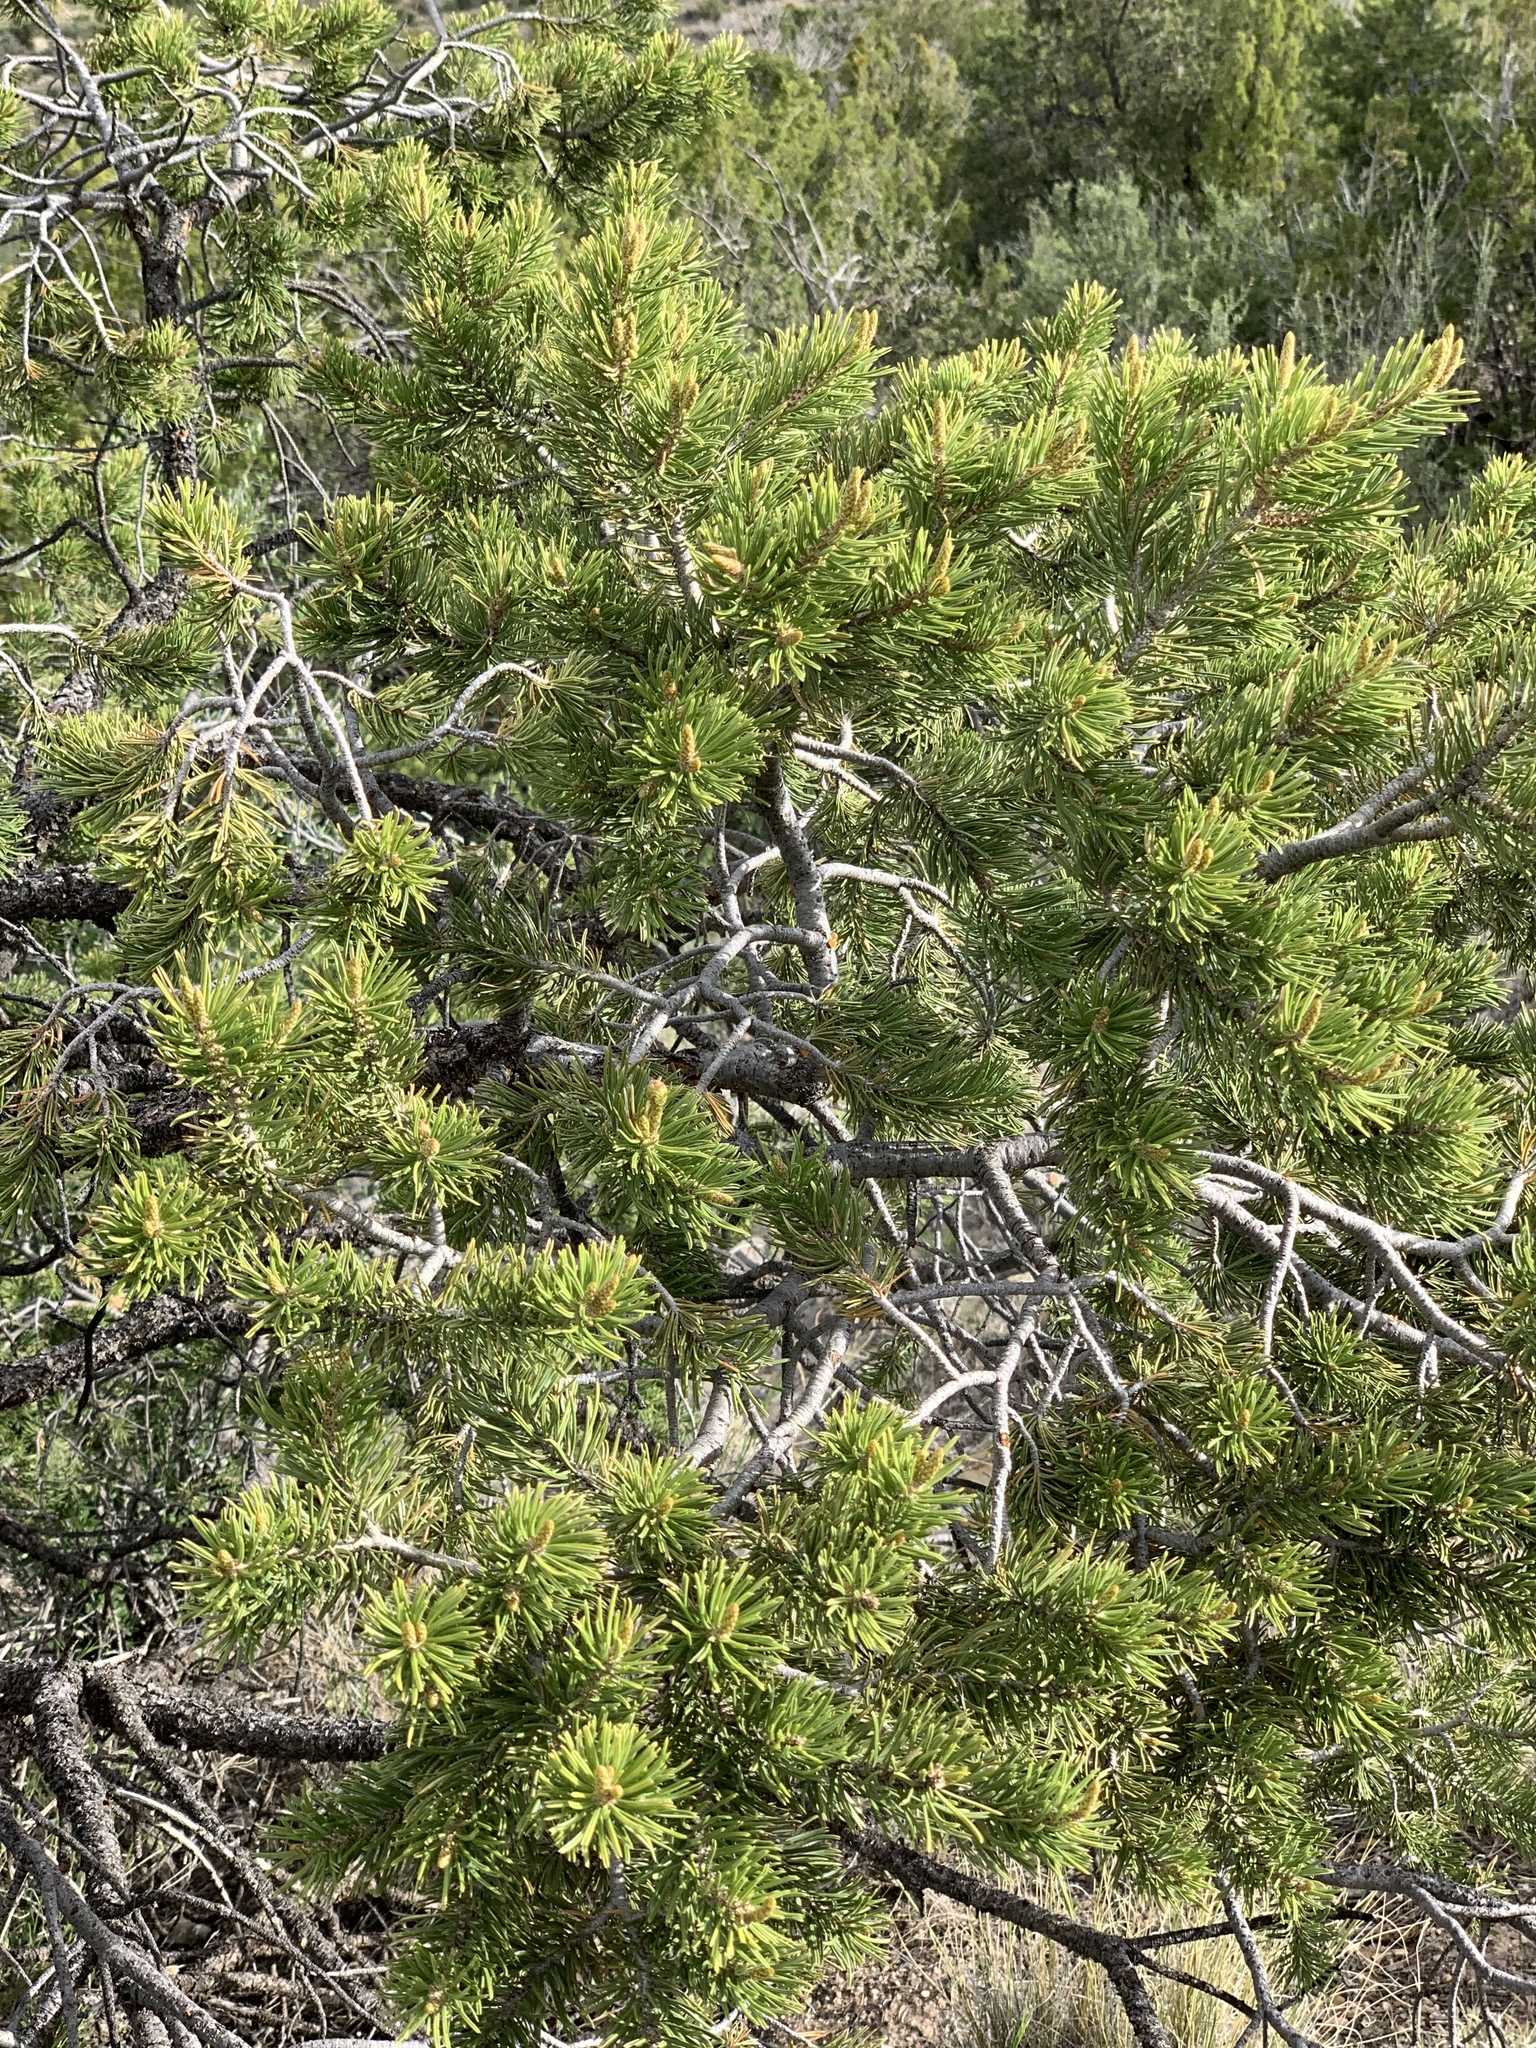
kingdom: Plantae
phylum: Tracheophyta
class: Pinopsida
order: Pinales
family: Pinaceae
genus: Pinus
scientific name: Pinus edulis
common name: Colorado pinyon
